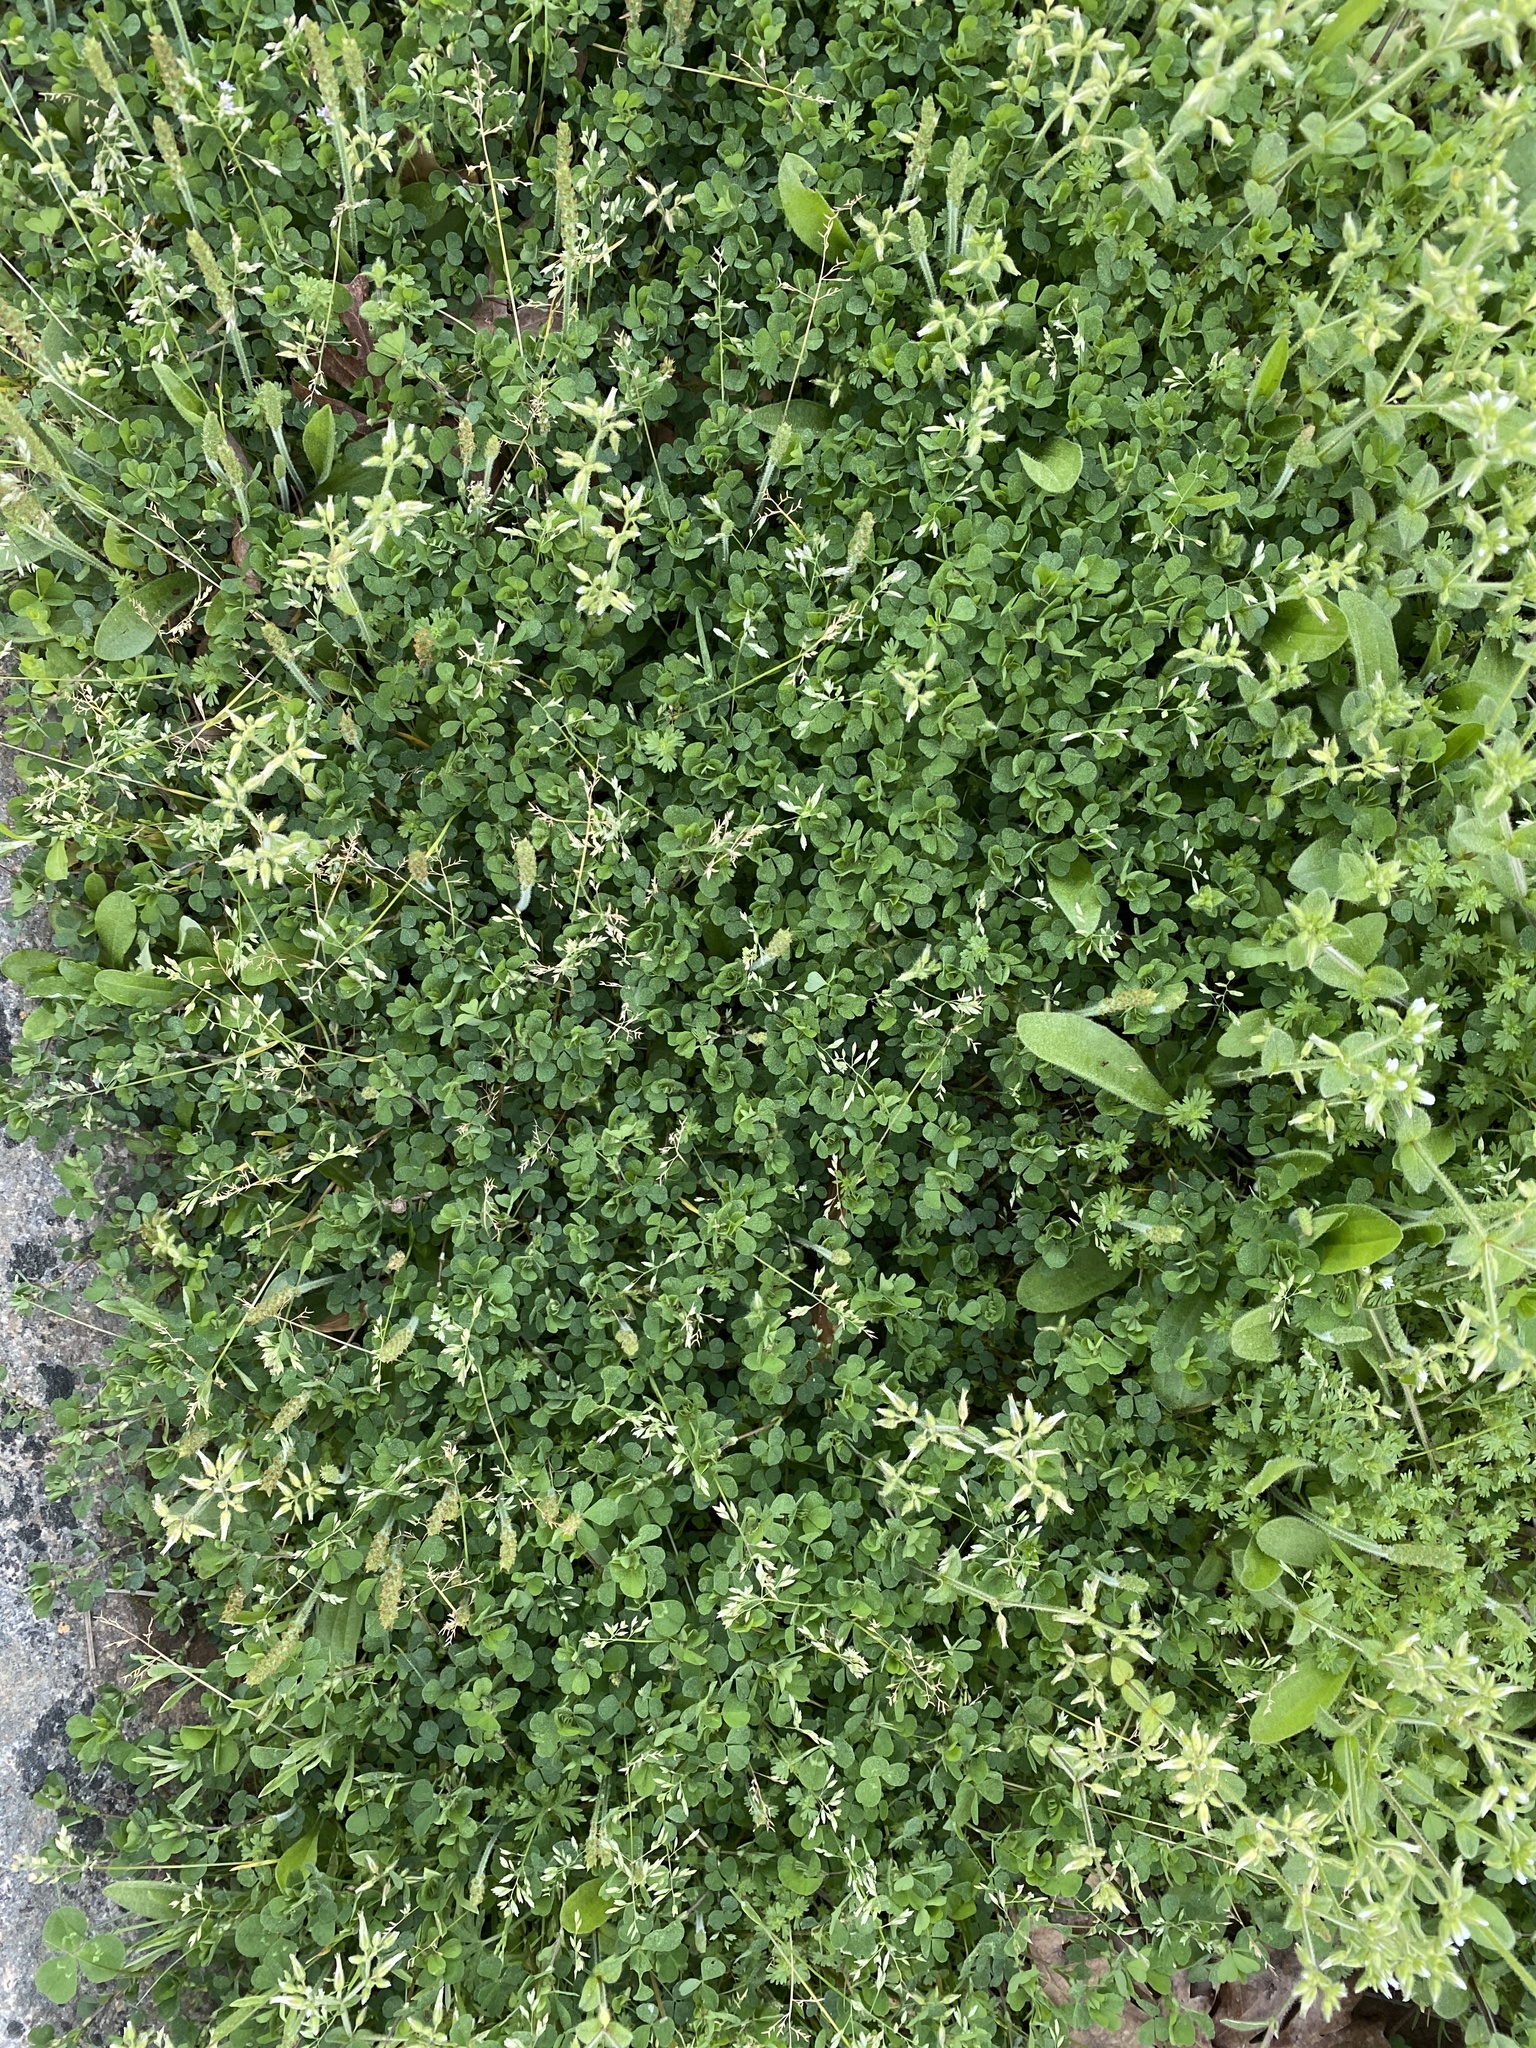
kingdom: Plantae
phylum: Tracheophyta
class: Magnoliopsida
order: Fabales
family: Fabaceae
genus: Trifolium
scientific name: Trifolium dubium
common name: Suckling clover
